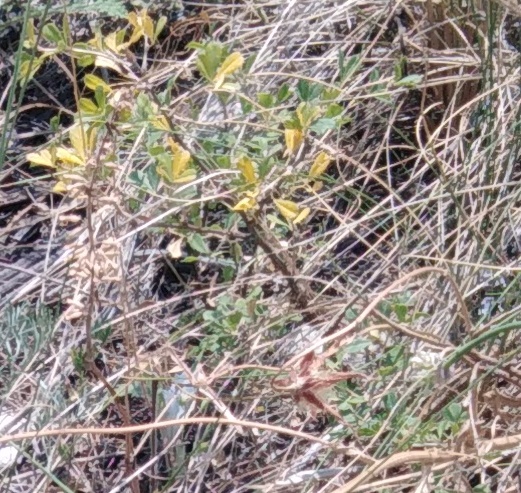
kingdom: Plantae
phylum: Tracheophyta
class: Magnoliopsida
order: Fabales
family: Fabaceae
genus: Caragana
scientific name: Caragana frutex
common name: Russian peashrub
